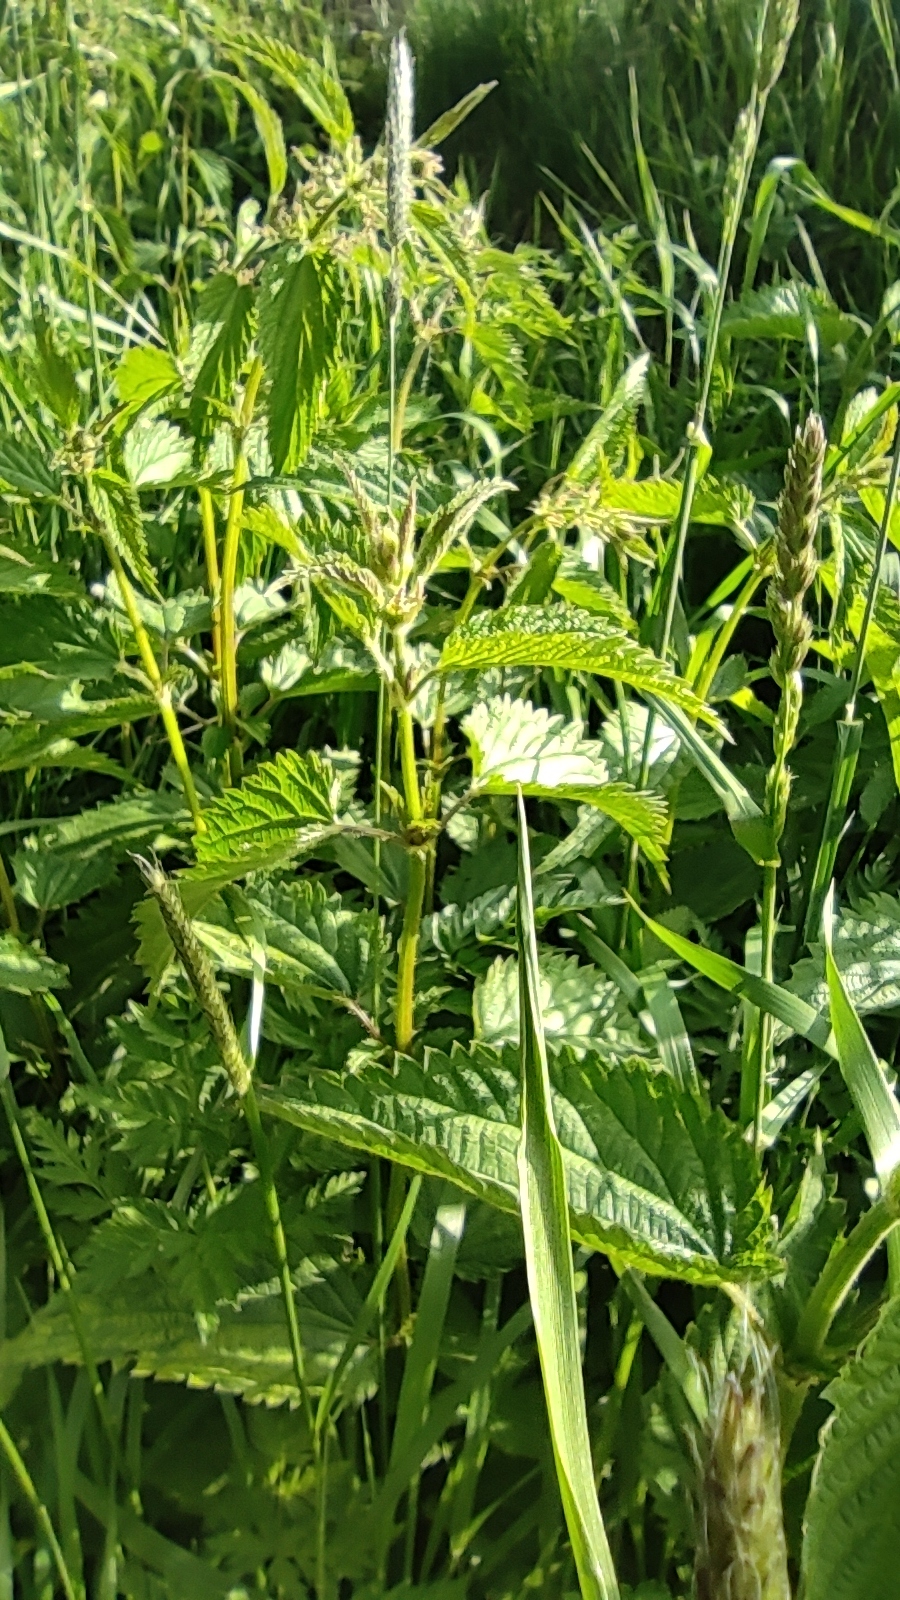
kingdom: Plantae
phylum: Tracheophyta
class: Magnoliopsida
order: Rosales
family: Urticaceae
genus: Urtica
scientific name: Urtica dioica
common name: Common nettle
